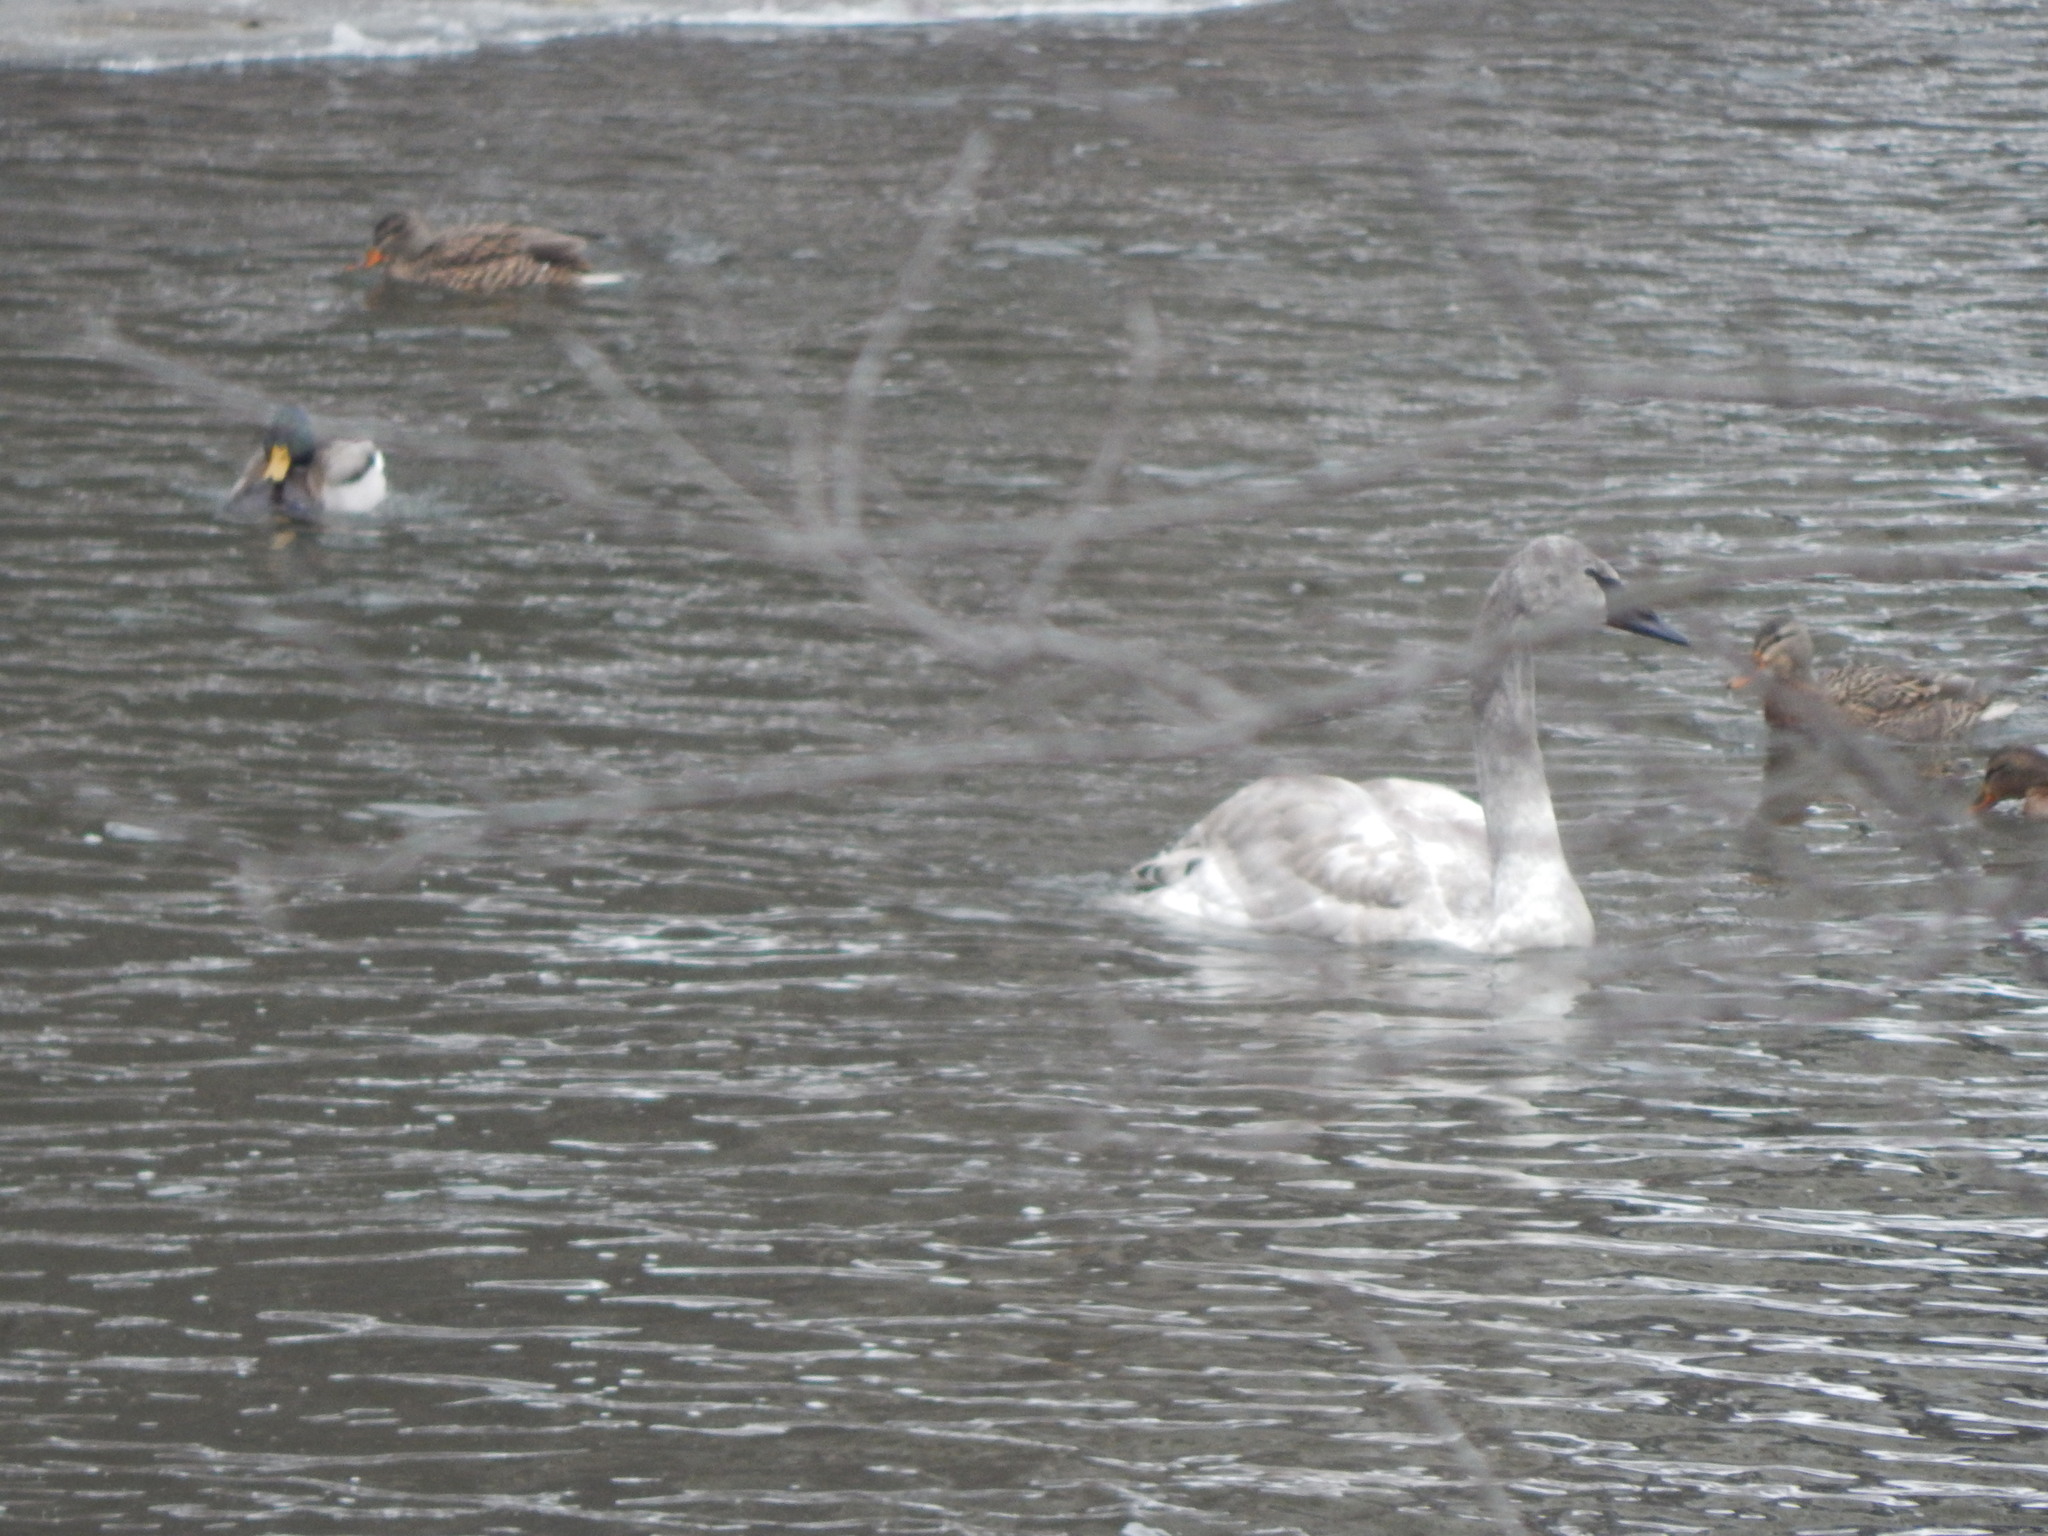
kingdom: Animalia
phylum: Chordata
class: Aves
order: Anseriformes
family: Anatidae
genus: Cygnus
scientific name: Cygnus buccinator
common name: Trumpeter swan
